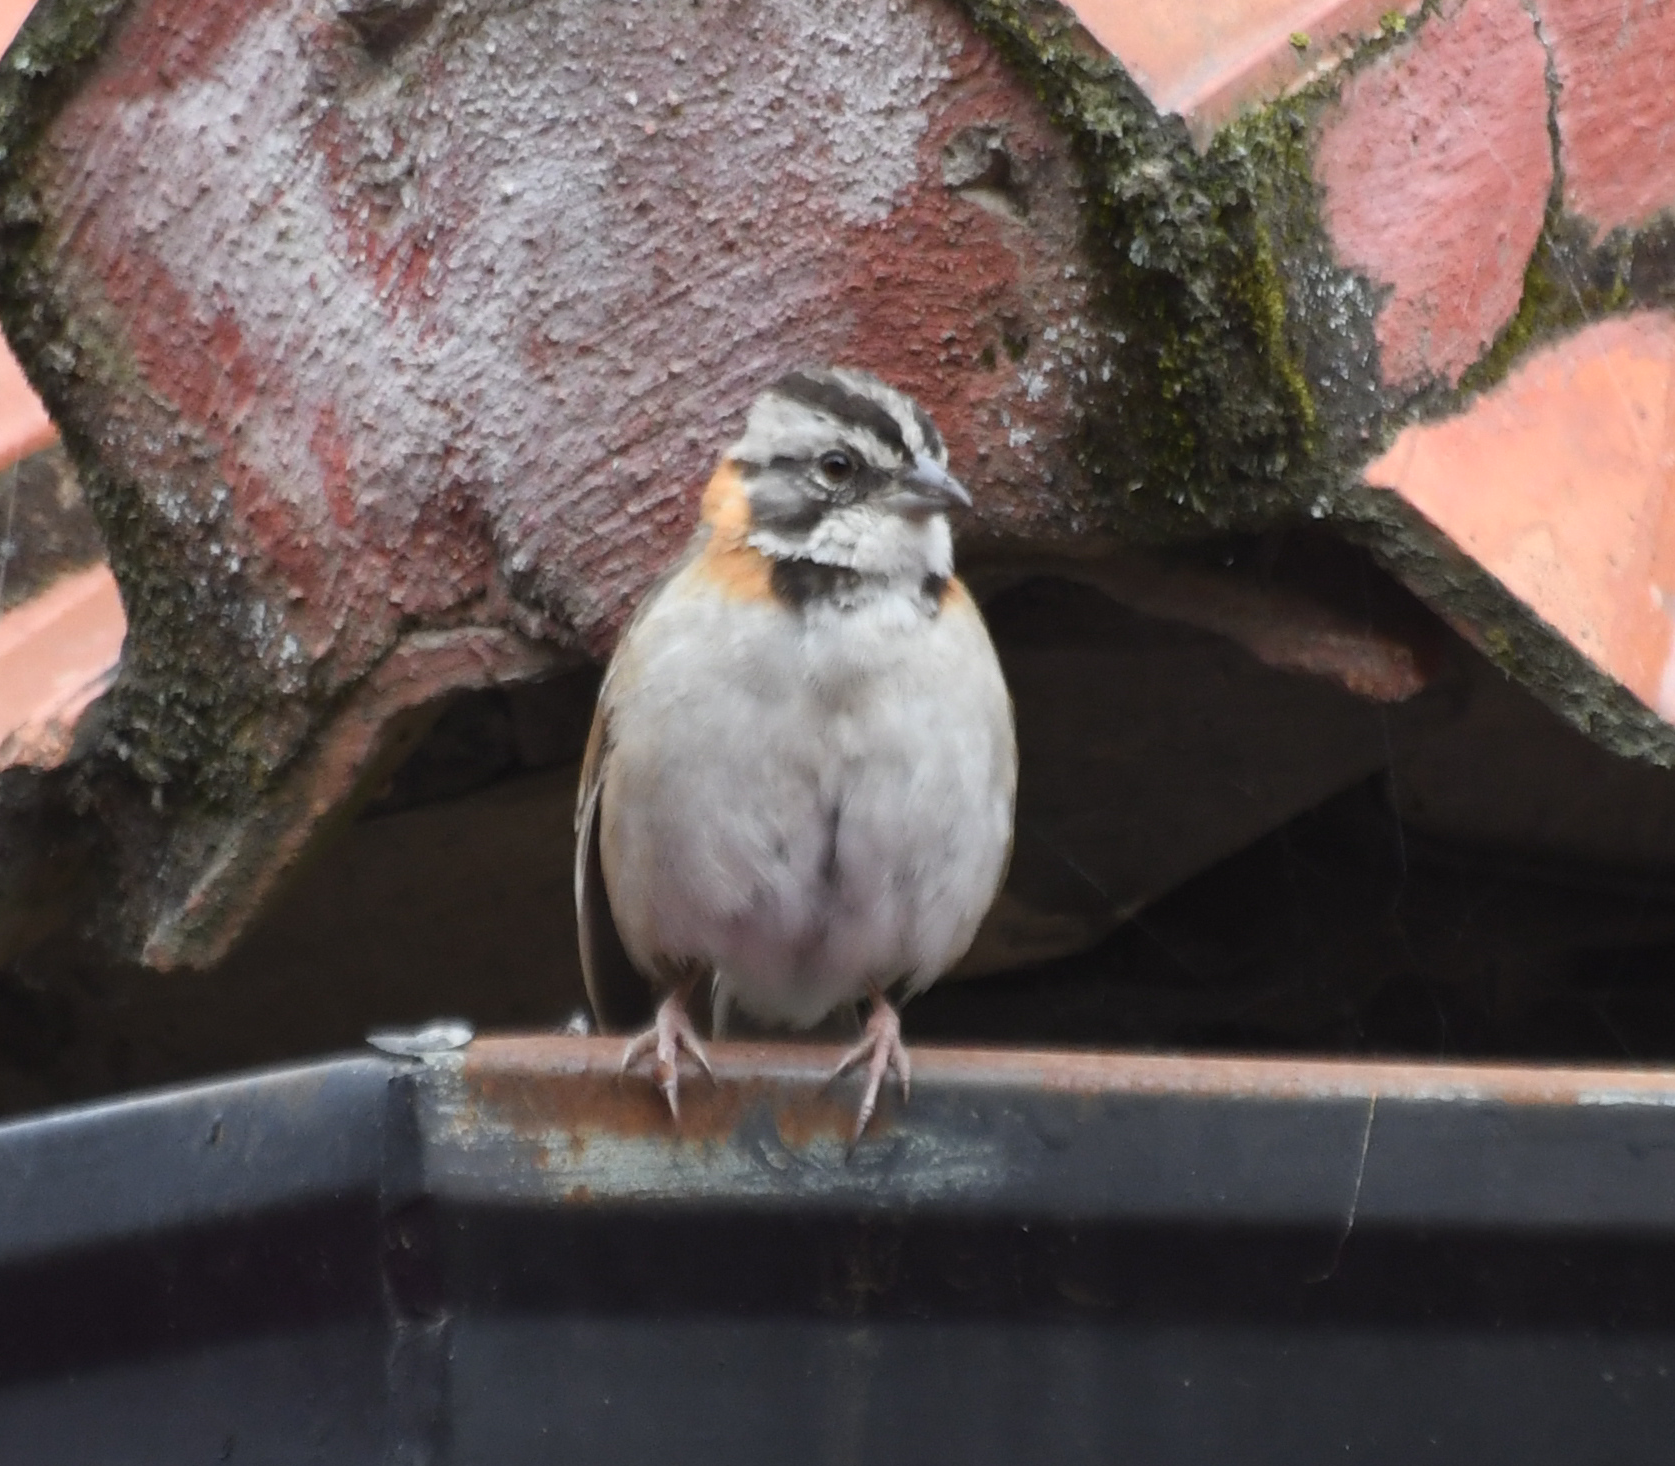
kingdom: Animalia
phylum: Chordata
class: Aves
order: Passeriformes
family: Passerellidae
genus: Zonotrichia
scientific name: Zonotrichia capensis
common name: Rufous-collared sparrow
